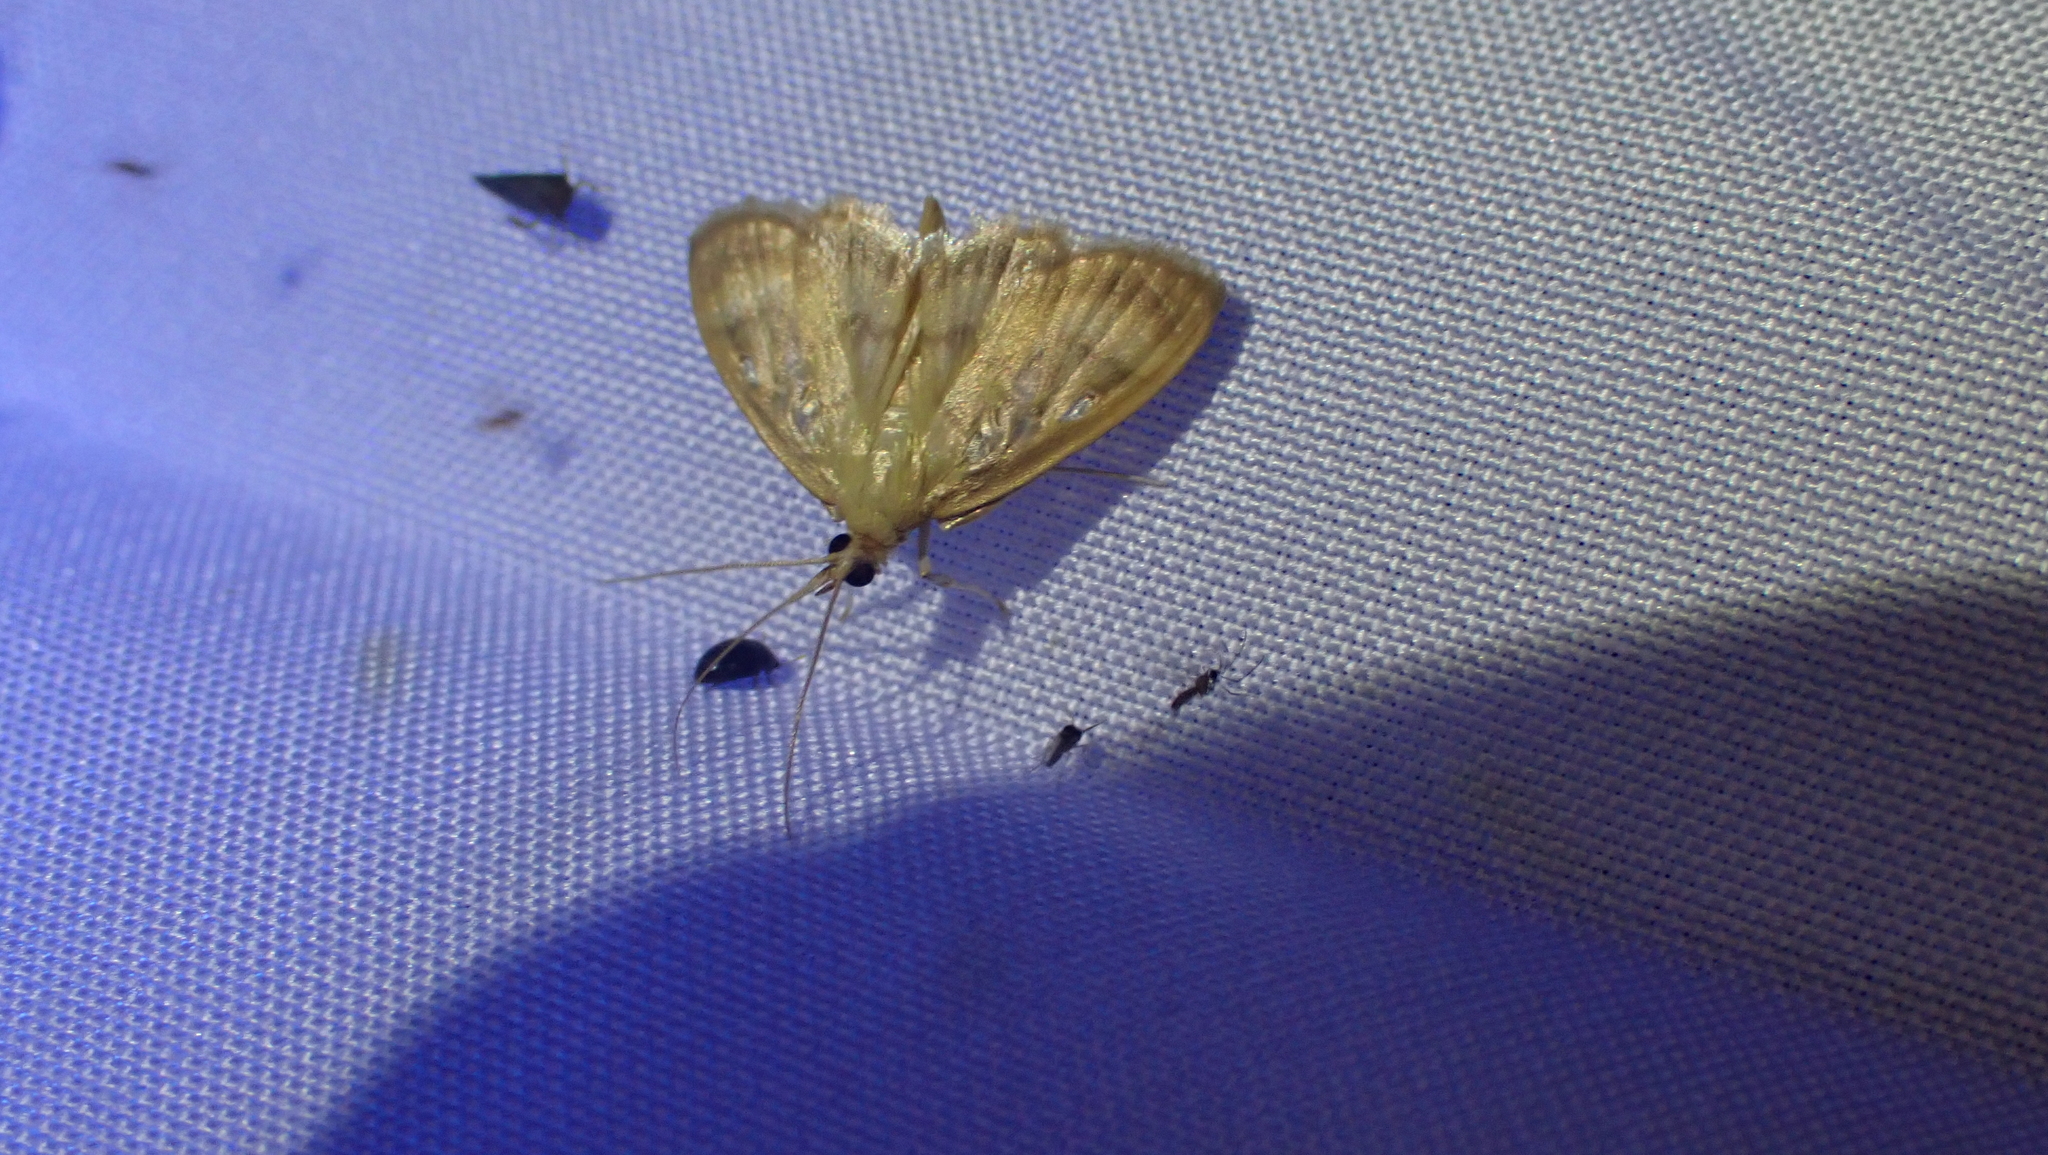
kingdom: Animalia
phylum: Arthropoda
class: Insecta
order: Lepidoptera
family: Crambidae
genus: Crocidophora
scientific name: Crocidophora tuberculalis
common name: Pale-winged crocidiphora moth
